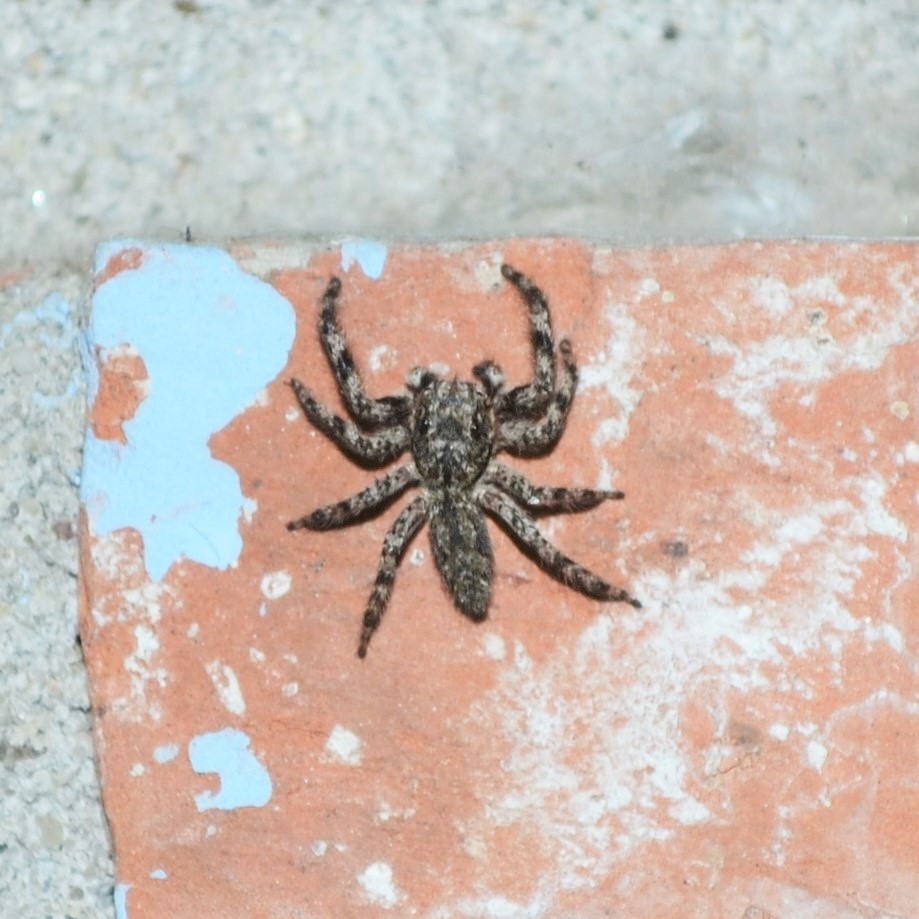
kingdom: Animalia
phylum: Arthropoda
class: Arachnida
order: Araneae
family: Salticidae
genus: Platycryptus
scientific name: Platycryptus undatus
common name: Tan jumping spider
